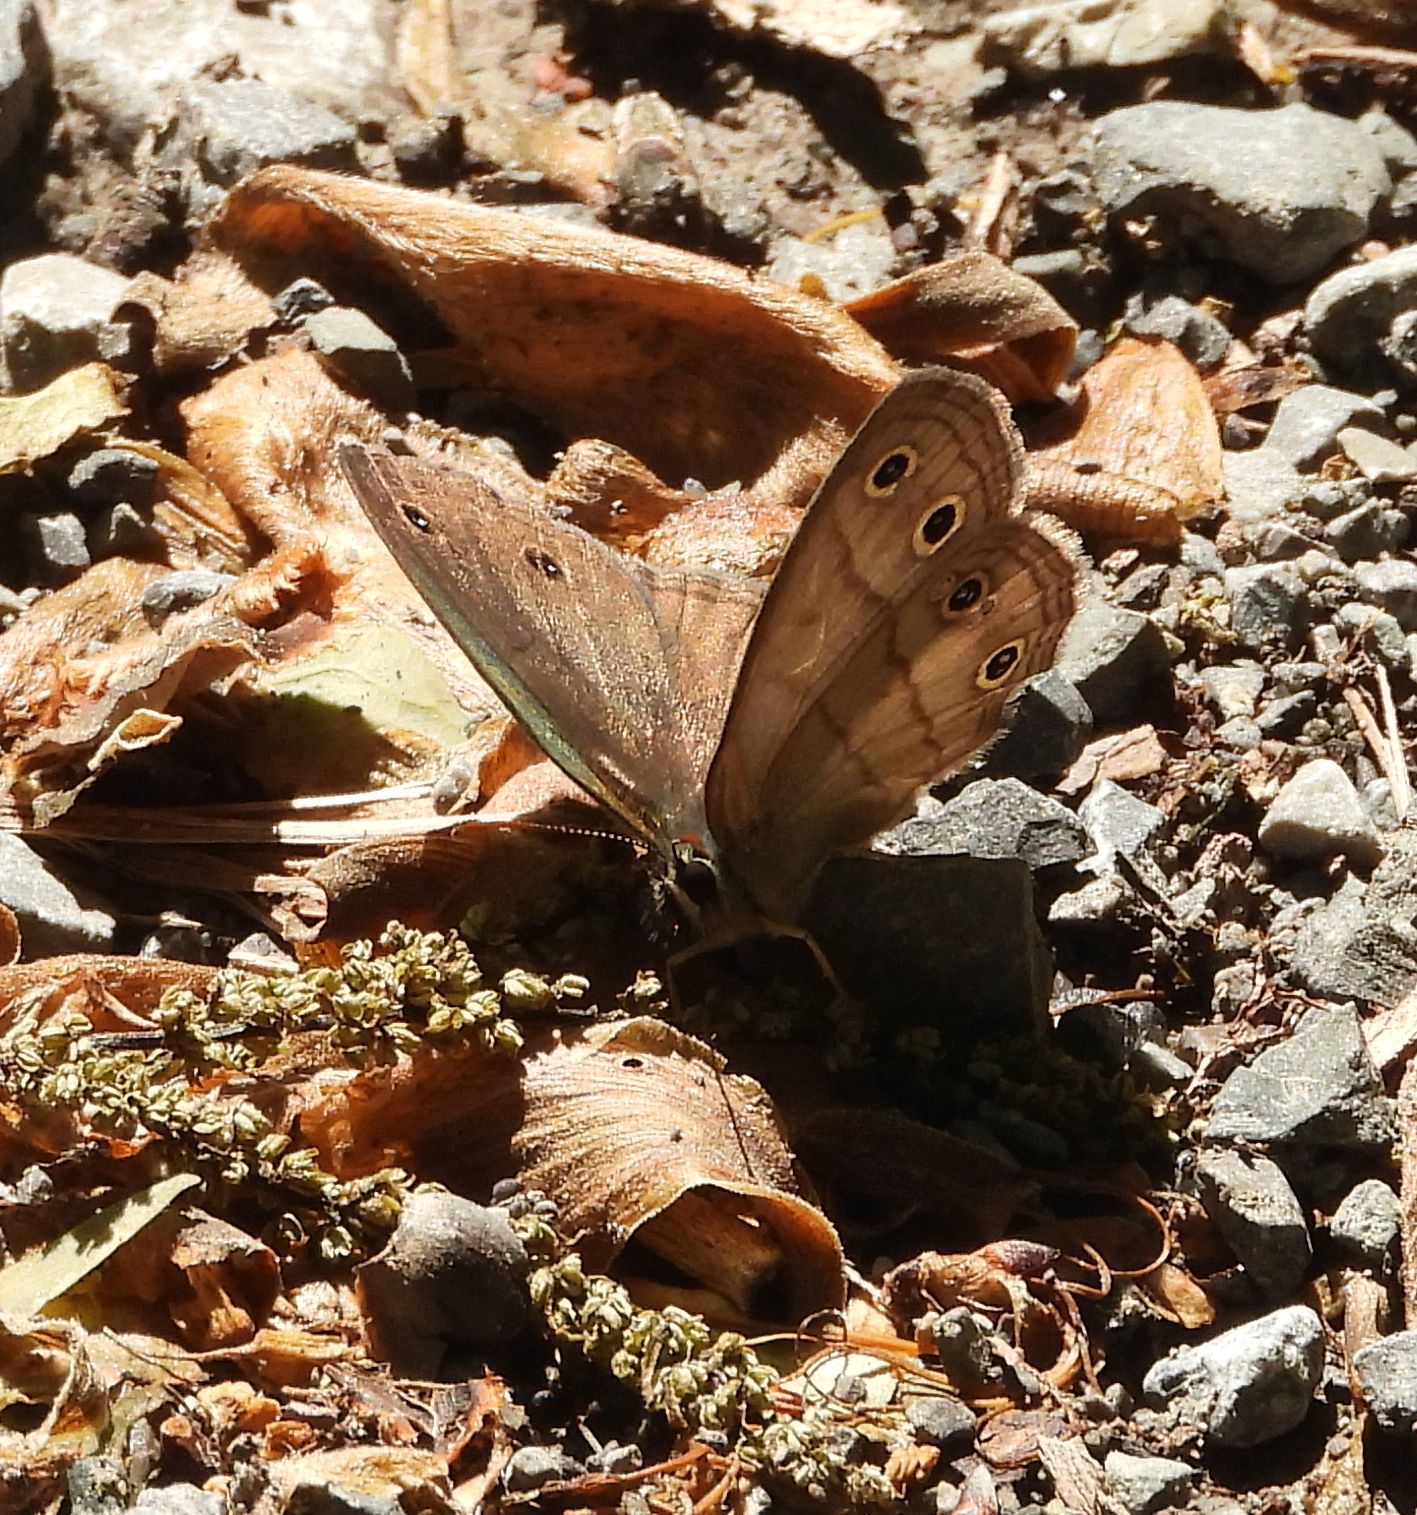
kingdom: Animalia
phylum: Arthropoda
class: Insecta
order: Lepidoptera
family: Nymphalidae
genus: Euptychia
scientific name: Euptychia cymela
